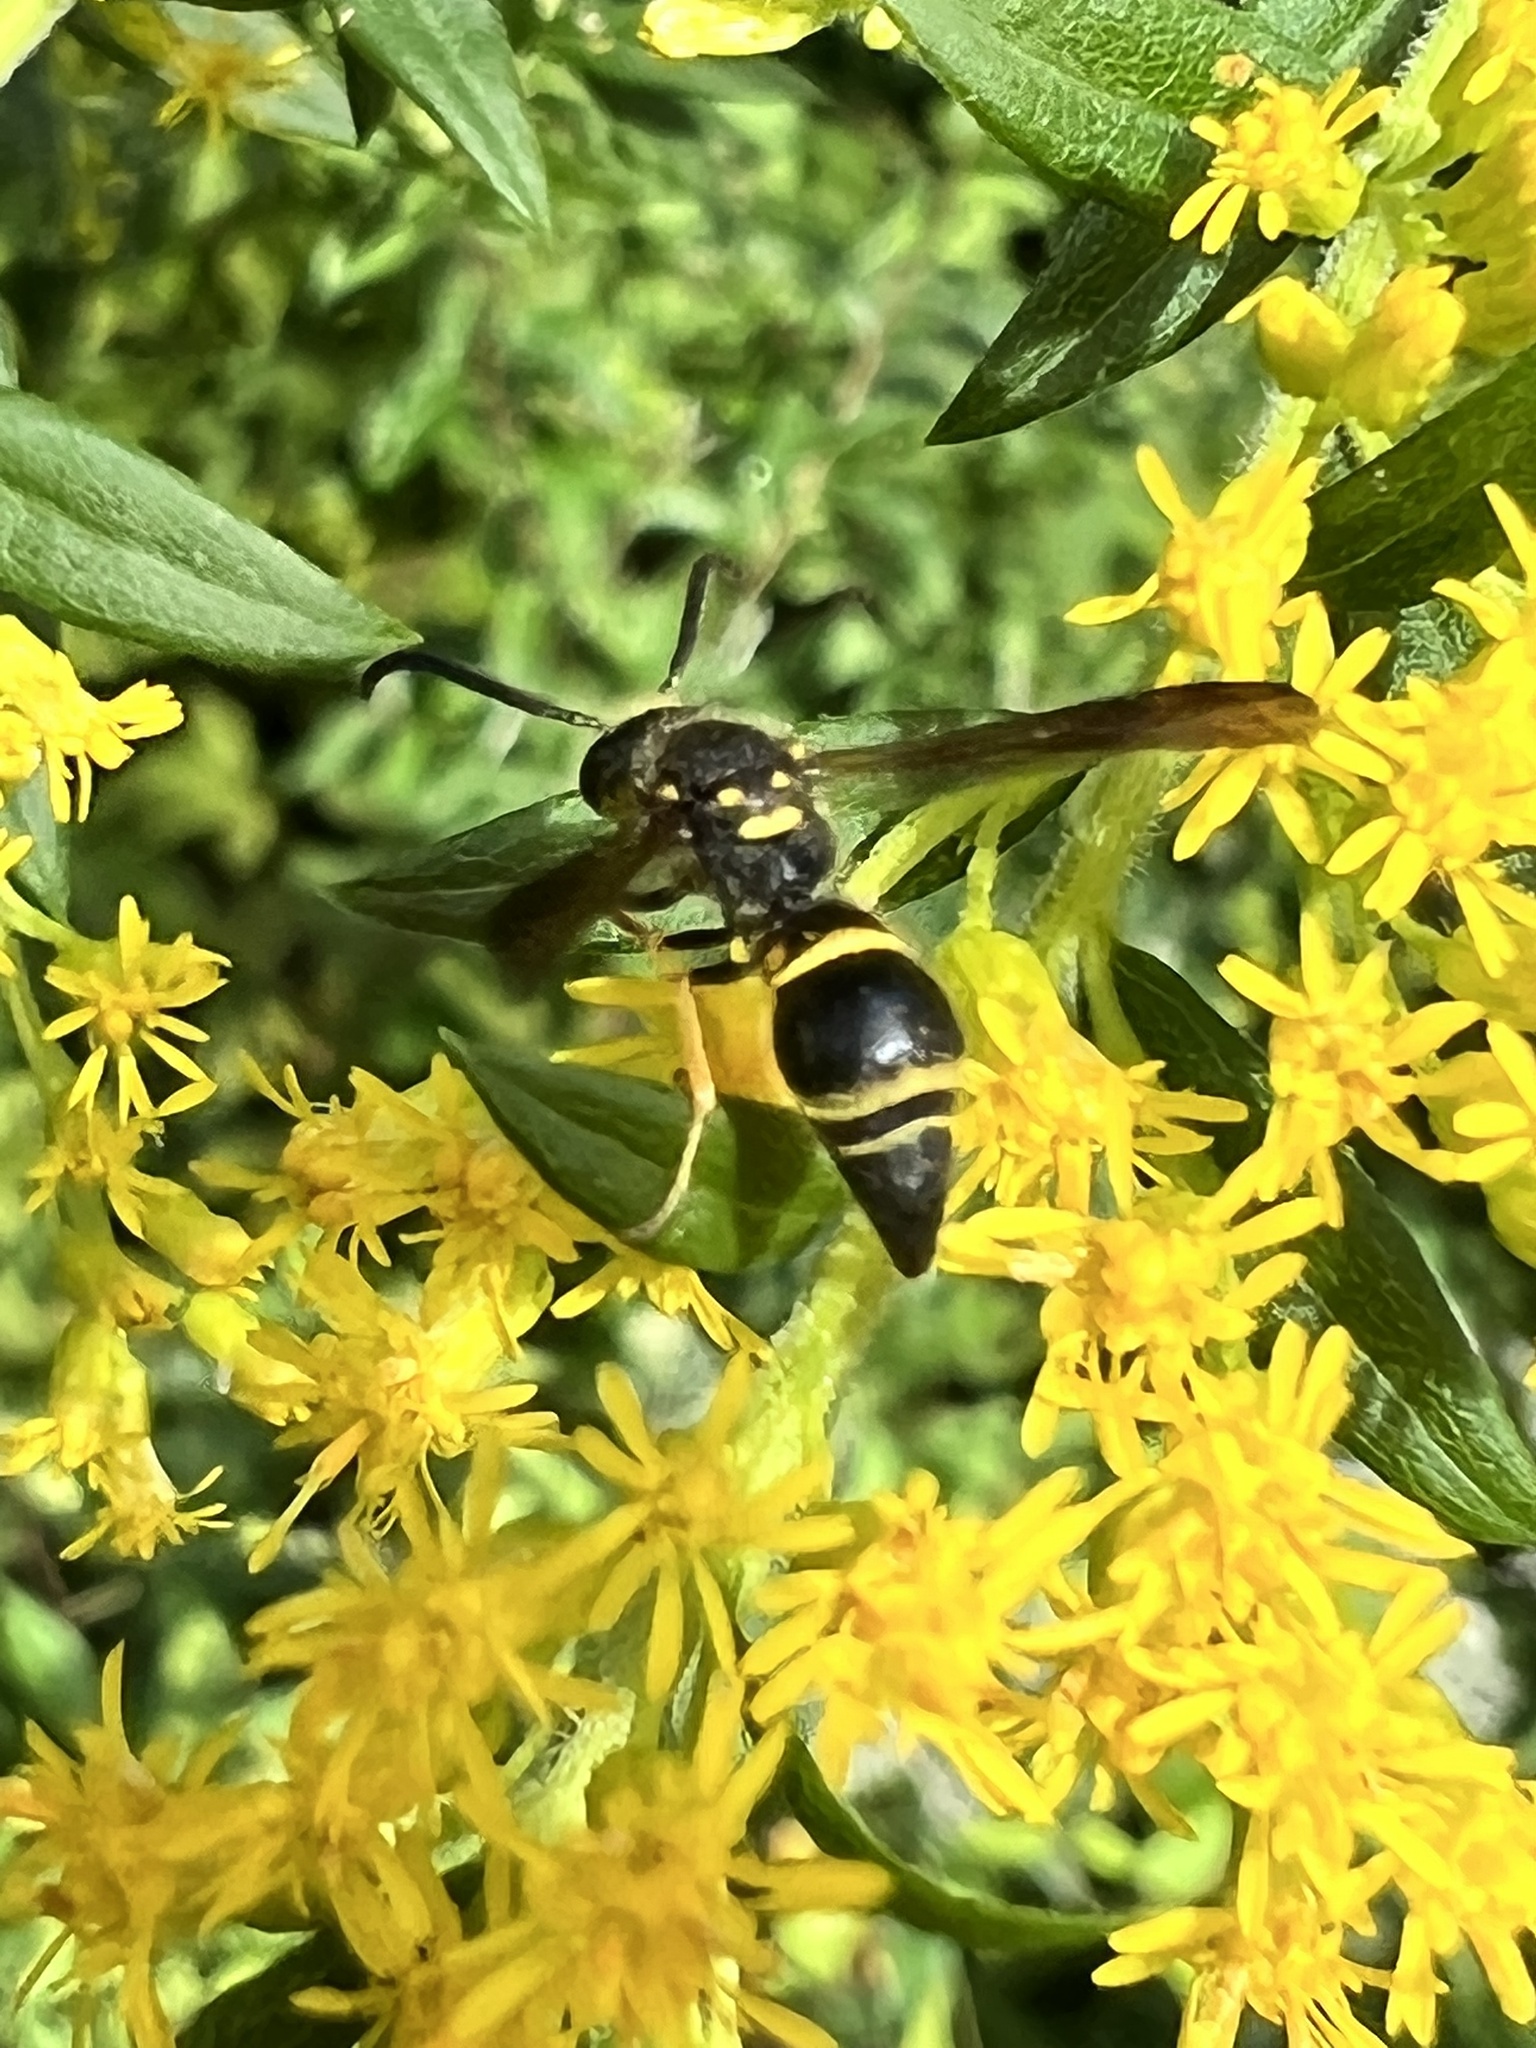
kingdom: Animalia
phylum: Arthropoda
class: Insecta
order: Hymenoptera
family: Vespidae
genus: Ancistrocerus
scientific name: Ancistrocerus campestris
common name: Smiling mason wasp
